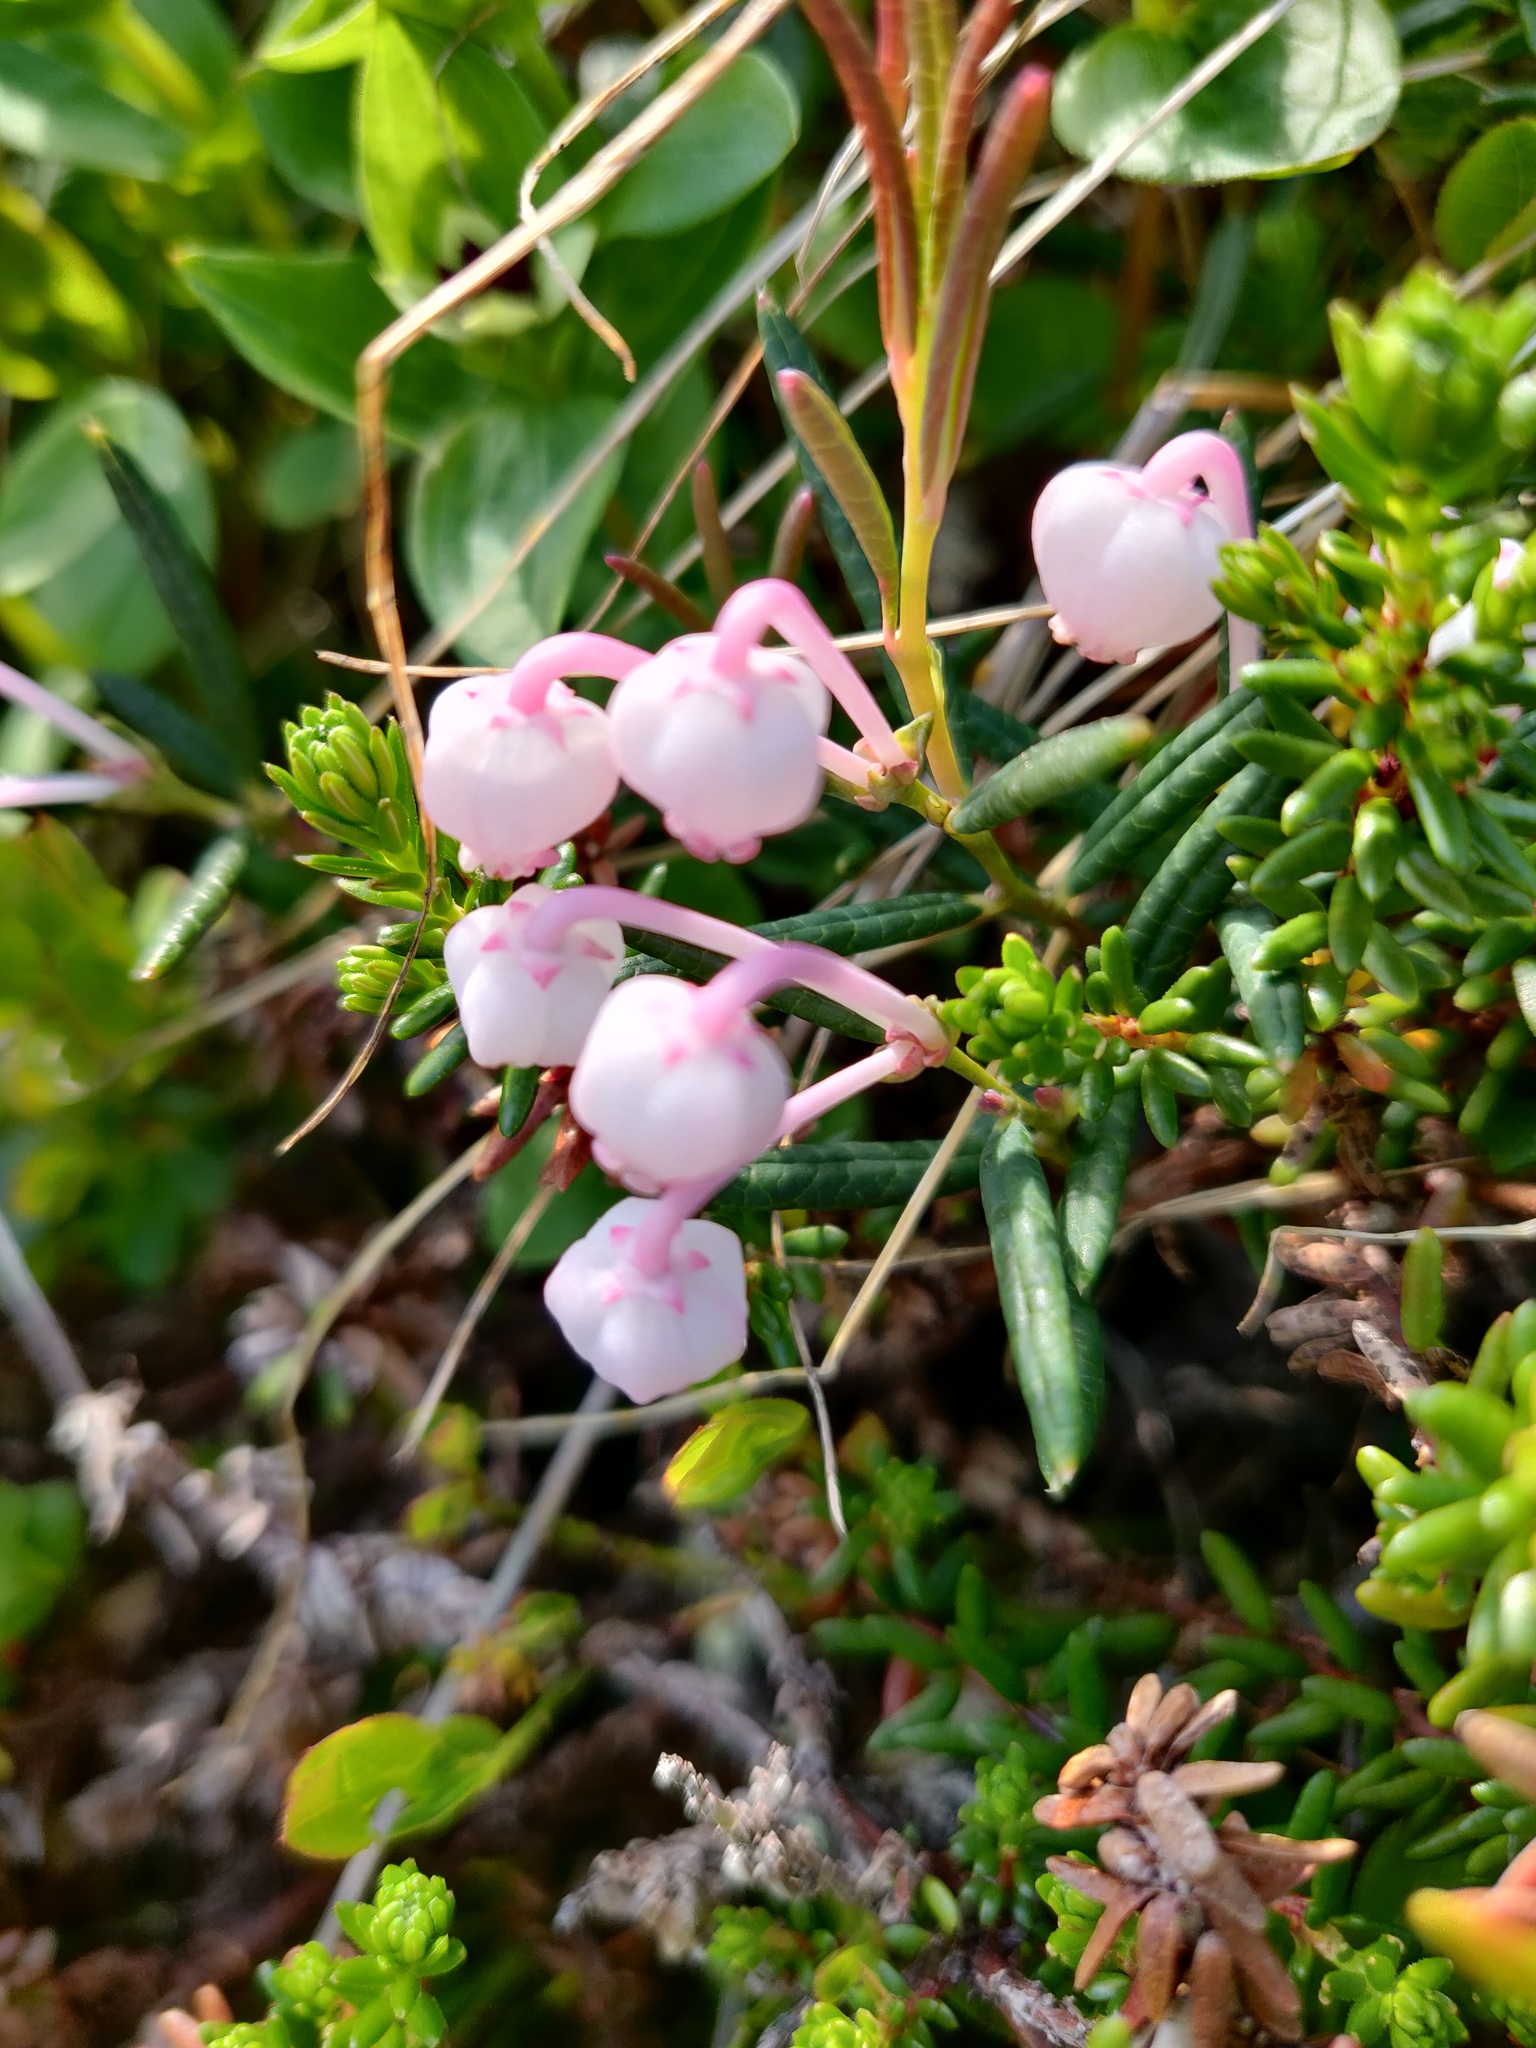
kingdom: Plantae
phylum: Tracheophyta
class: Magnoliopsida
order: Ericales
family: Ericaceae
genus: Andromeda
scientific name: Andromeda polifolia
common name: Bog-rosemary
